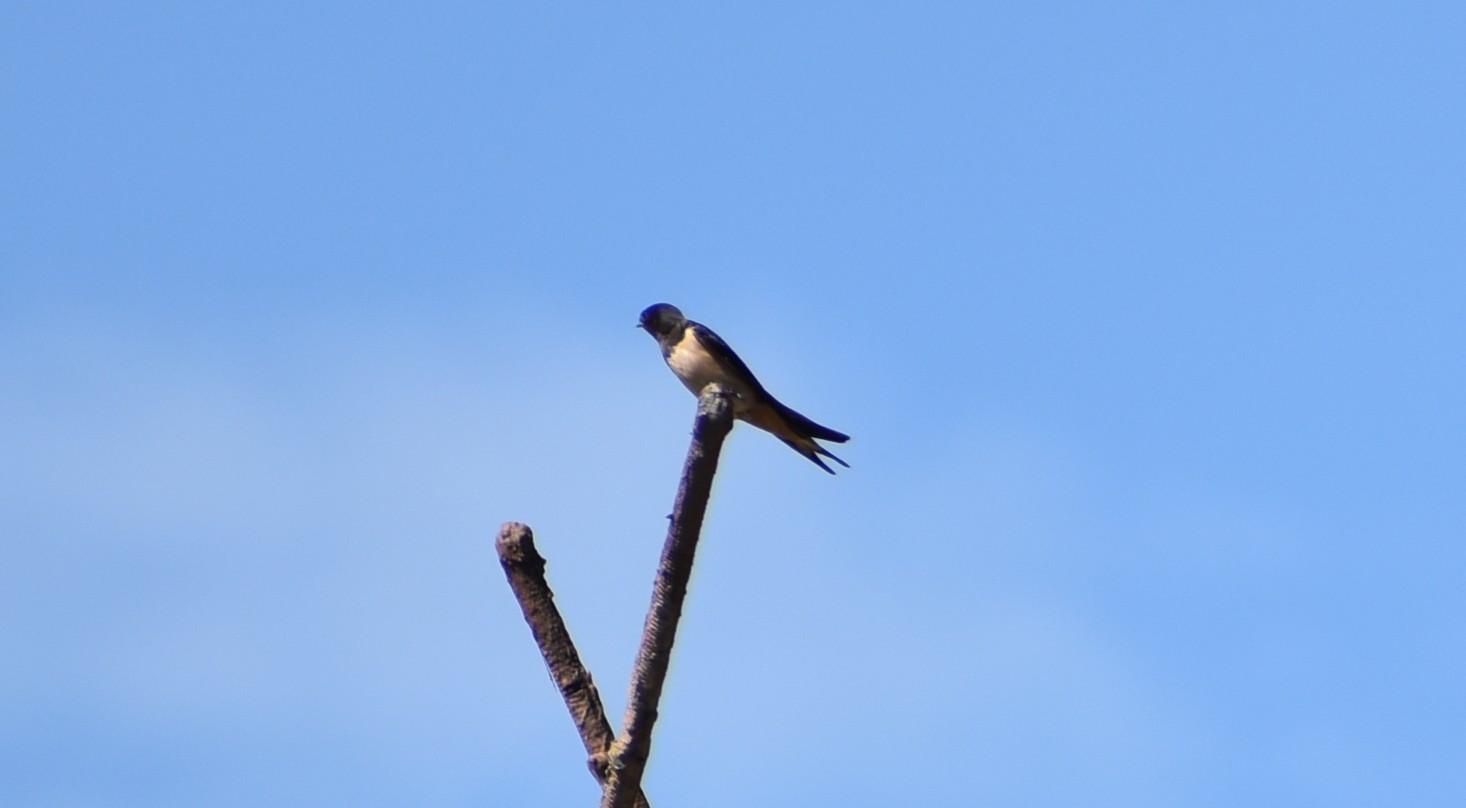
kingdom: Animalia
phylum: Chordata
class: Aves
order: Passeriformes
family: Hirundinidae
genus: Hirundo
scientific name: Hirundo rustica
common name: Barn swallow
